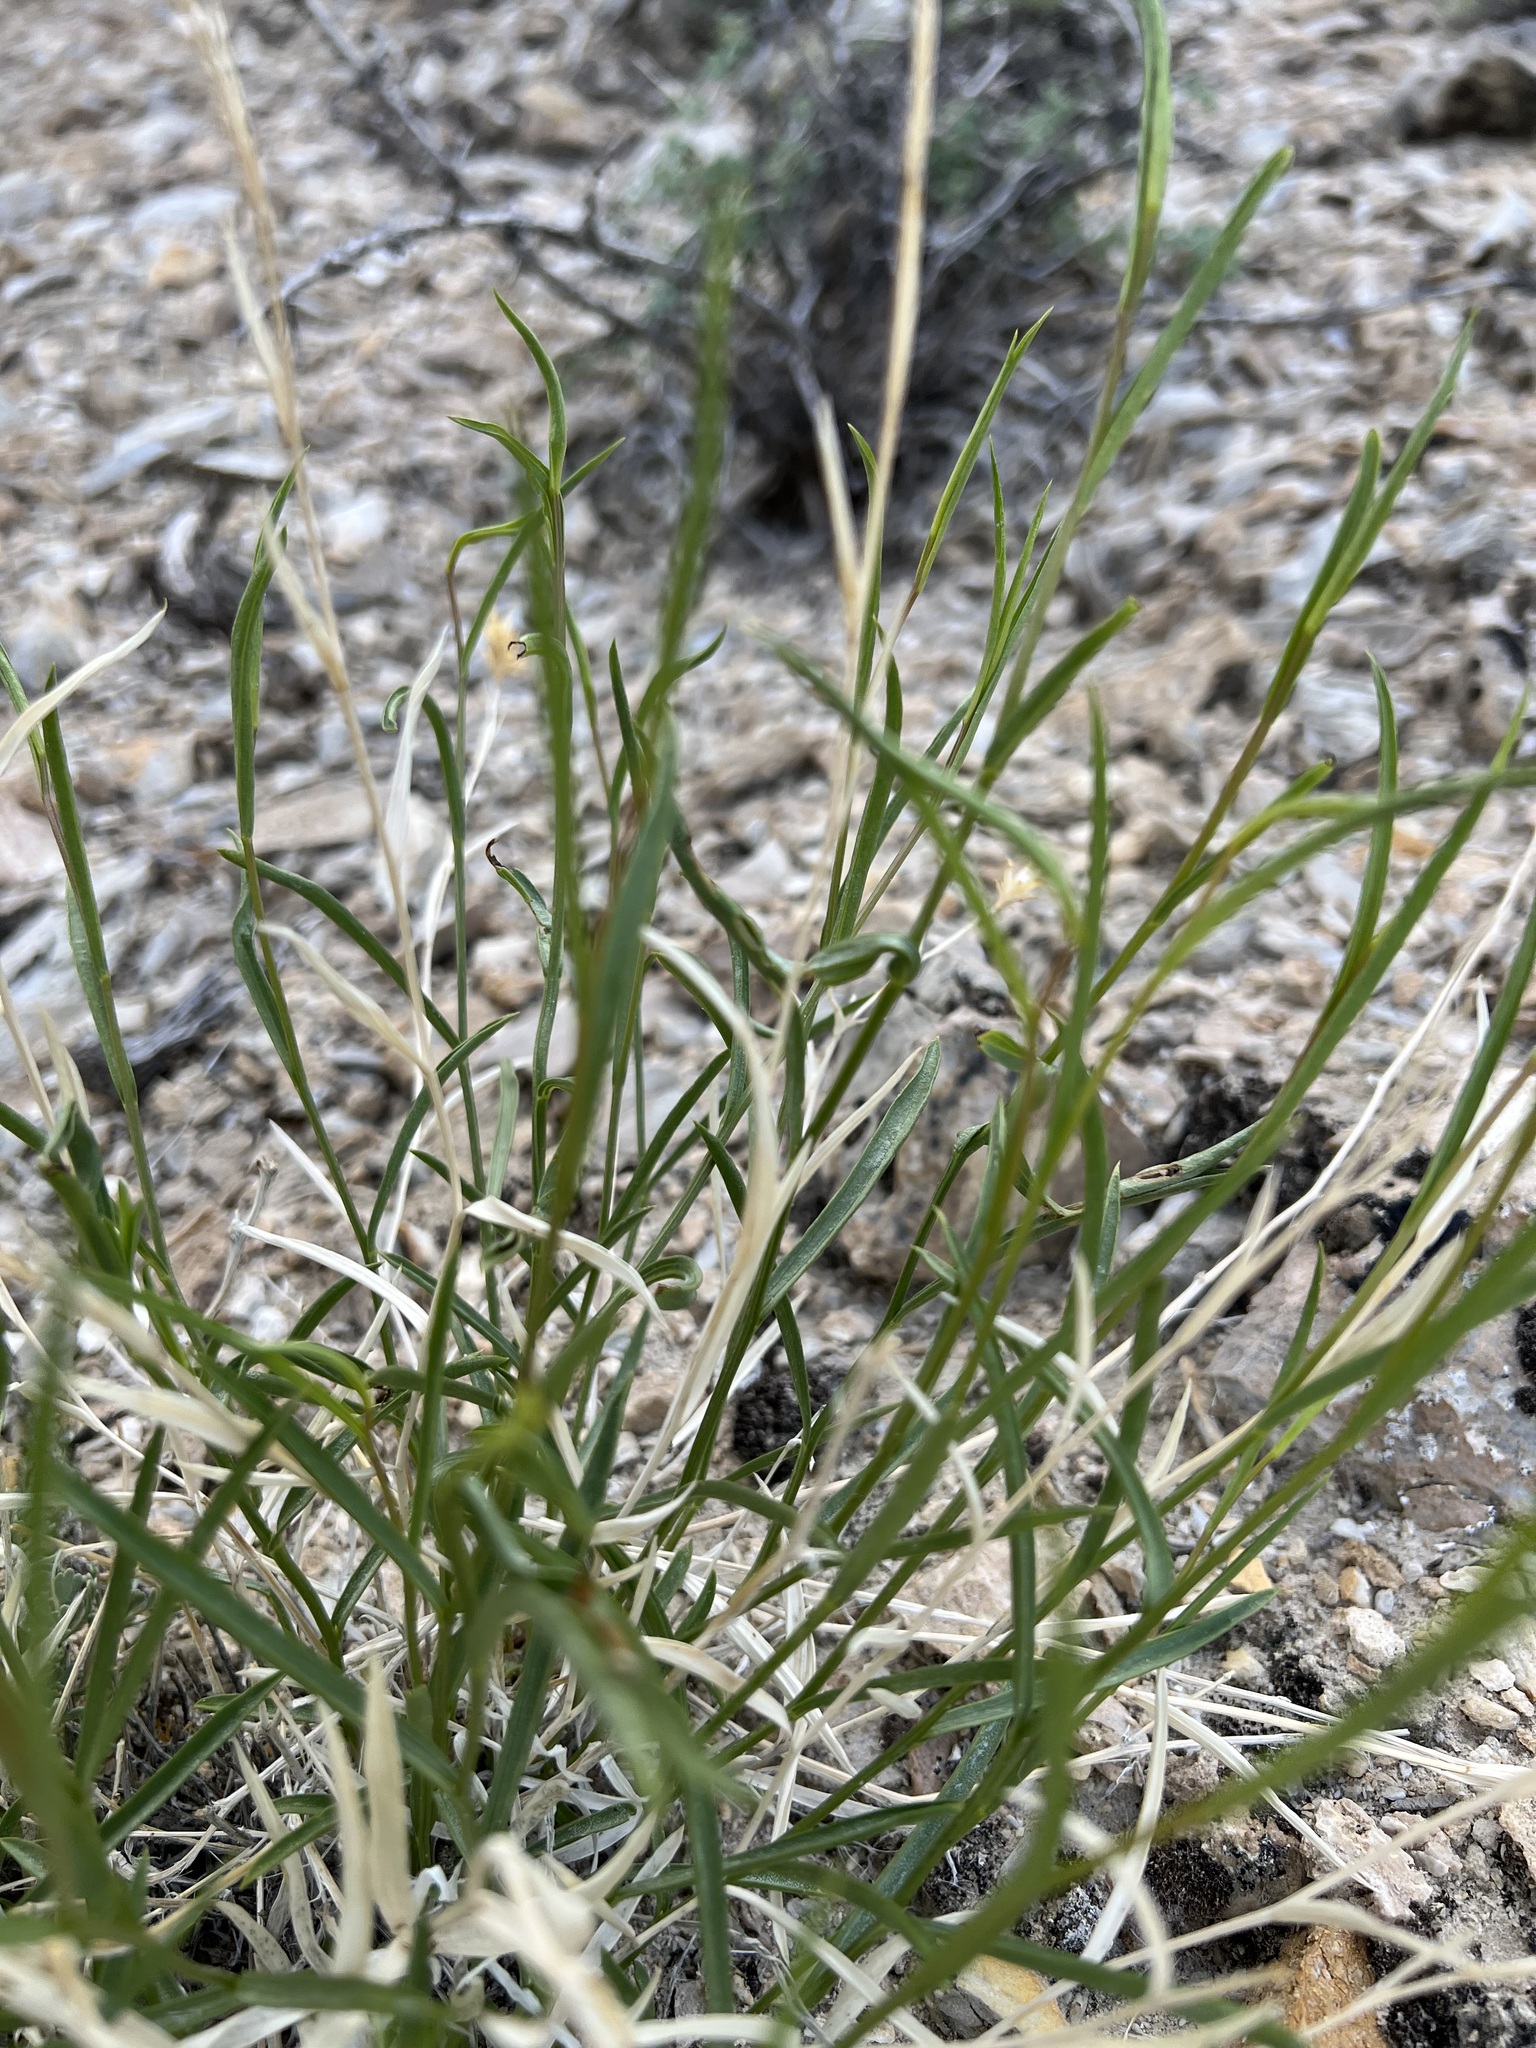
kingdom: Plantae
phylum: Tracheophyta
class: Magnoliopsida
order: Asterales
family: Asteraceae
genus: Cuniculotinus
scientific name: Cuniculotinus gramineus
